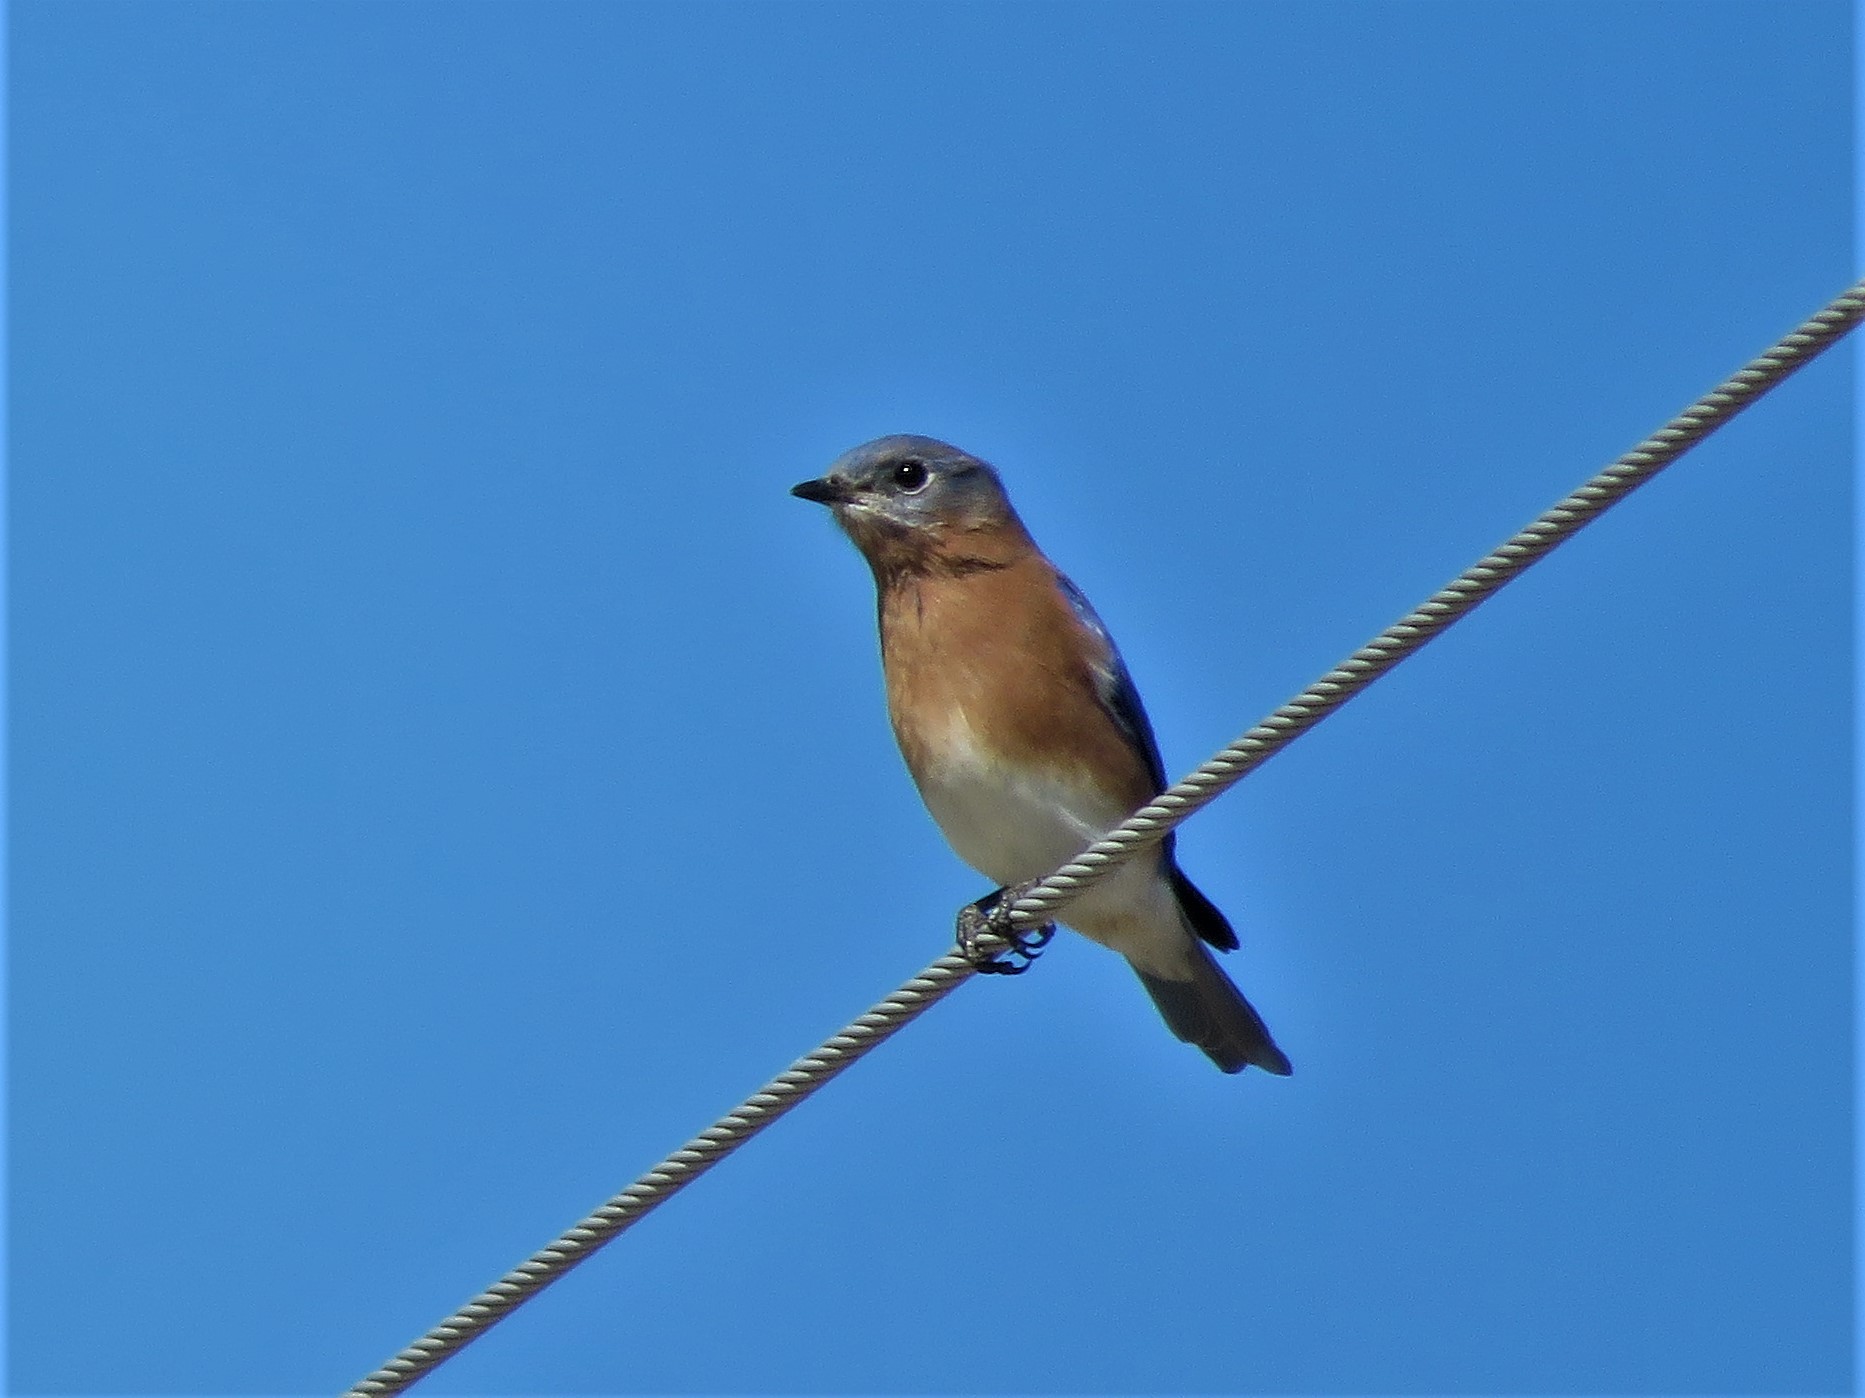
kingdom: Animalia
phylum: Chordata
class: Aves
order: Passeriformes
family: Turdidae
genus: Sialia
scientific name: Sialia sialis
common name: Eastern bluebird
